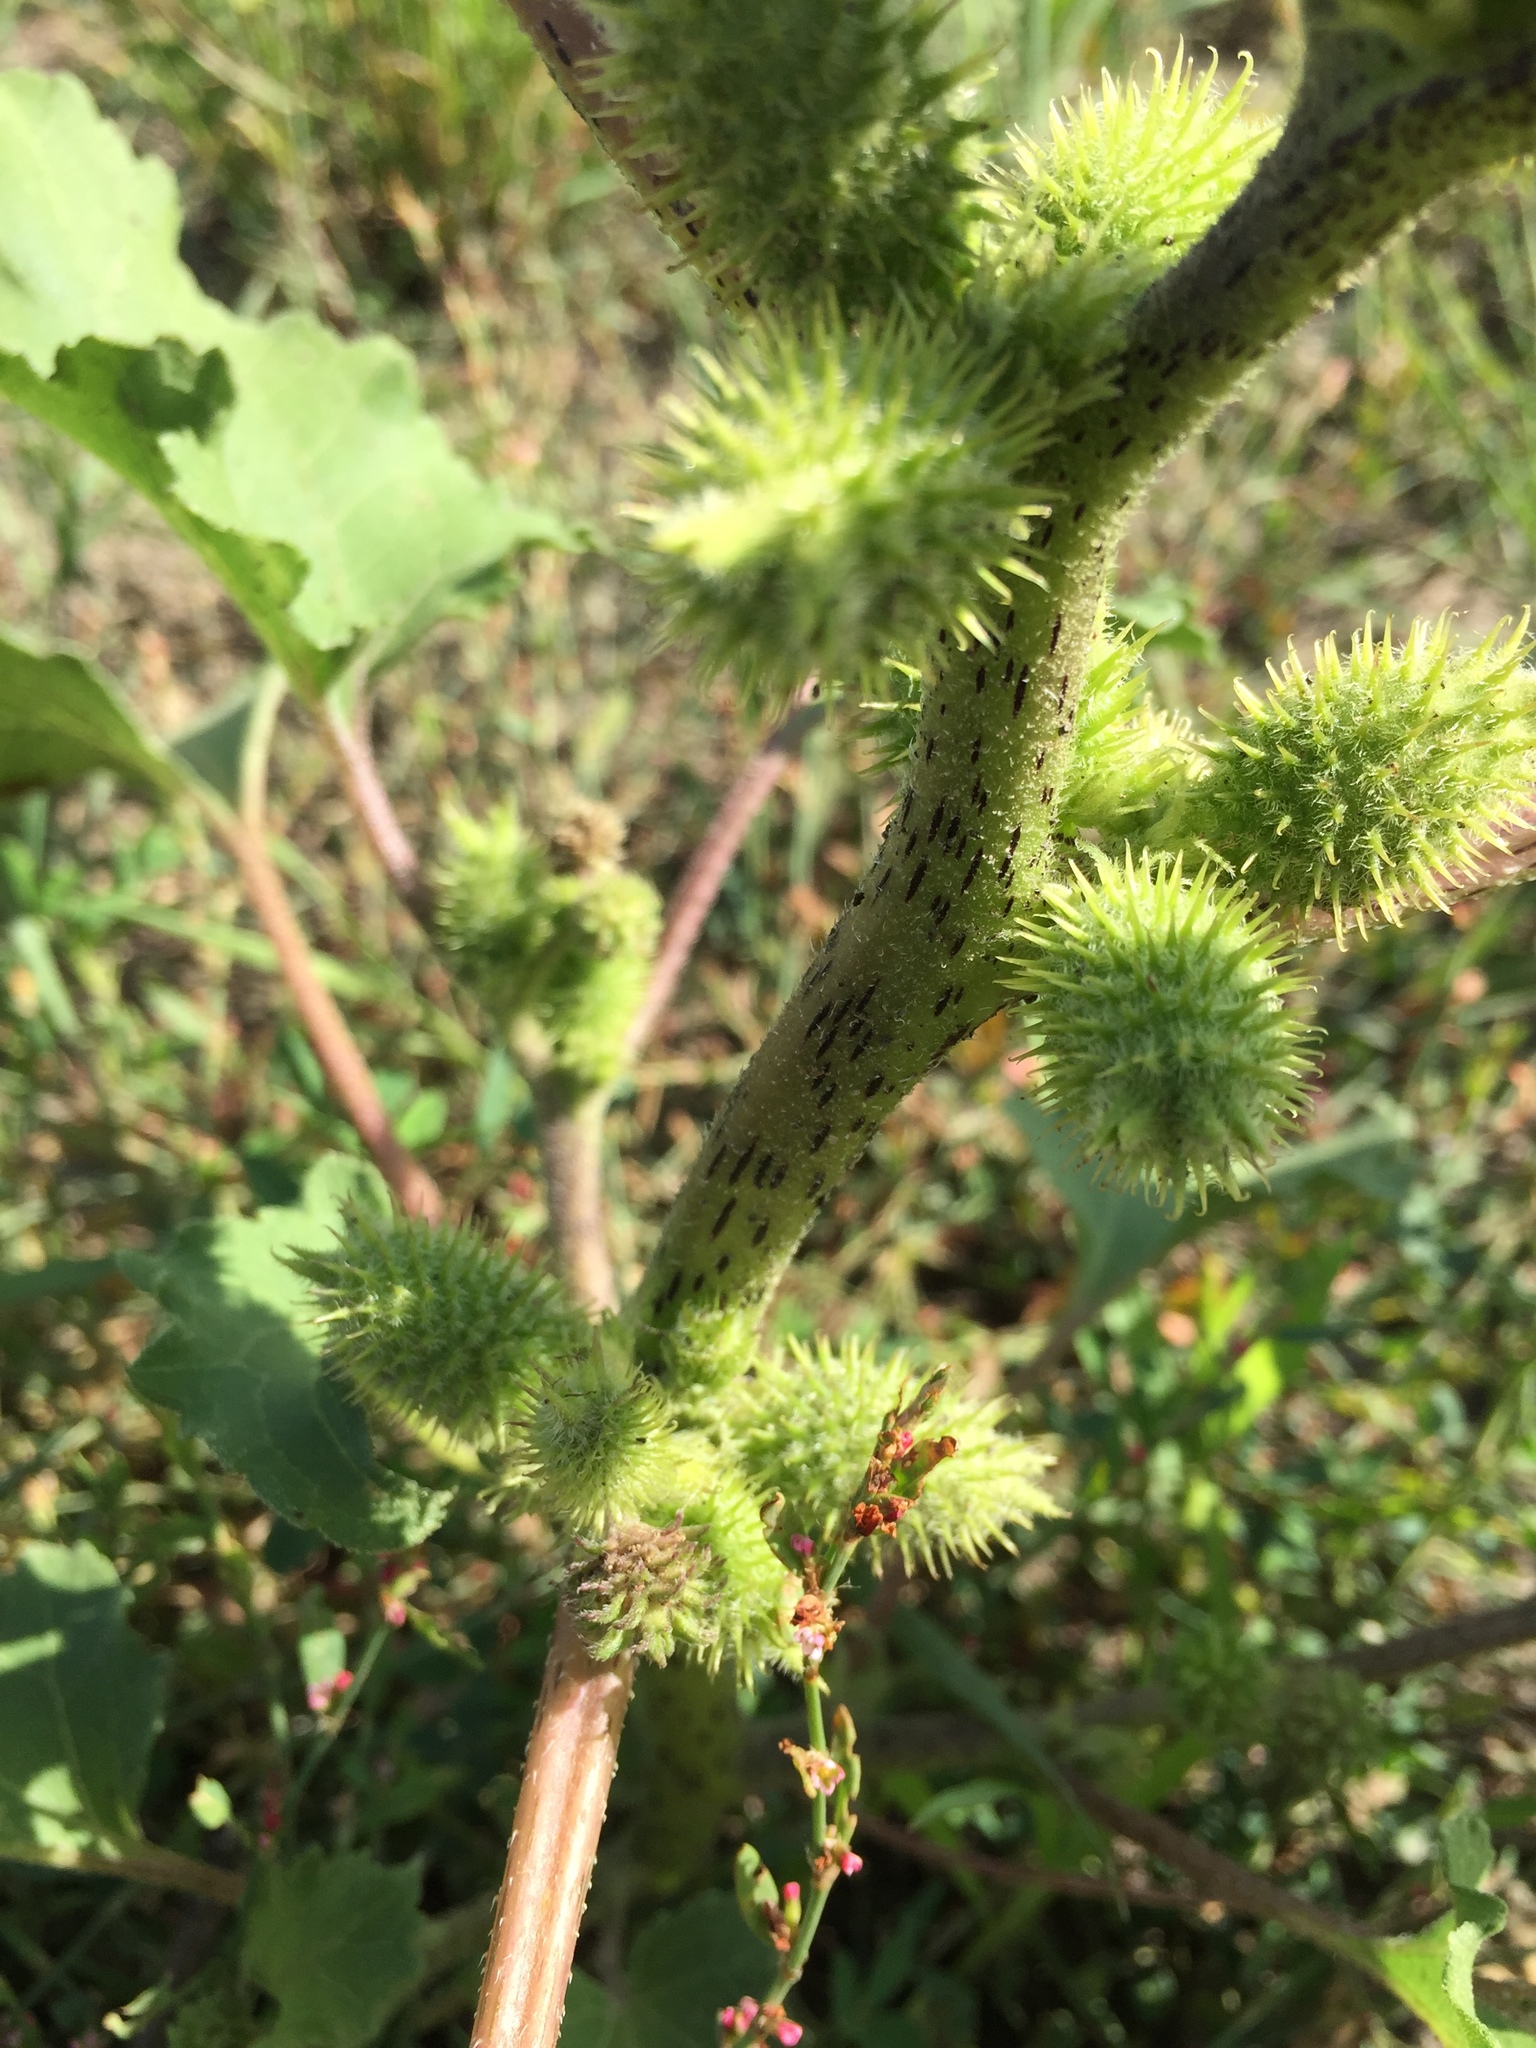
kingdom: Plantae
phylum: Tracheophyta
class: Magnoliopsida
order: Asterales
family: Asteraceae
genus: Xanthium
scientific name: Xanthium strumarium
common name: Rough cocklebur
